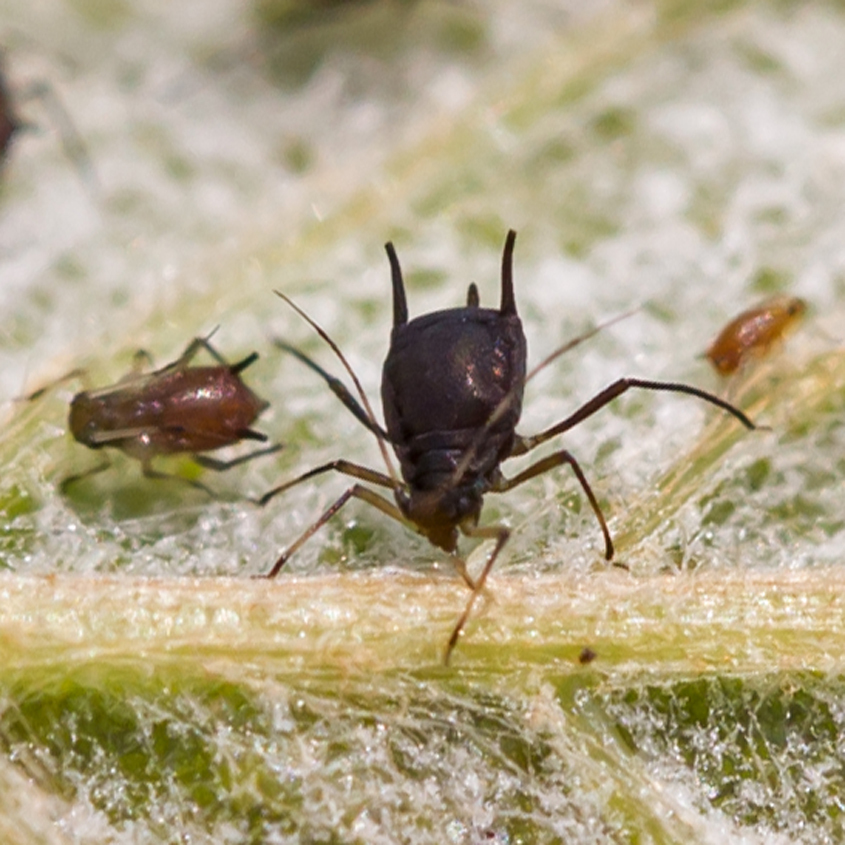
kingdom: Animalia
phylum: Arthropoda
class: Insecta
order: Hemiptera
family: Aphididae
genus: Aphis
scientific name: Aphis illinoisensis
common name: Grapevine aphid
